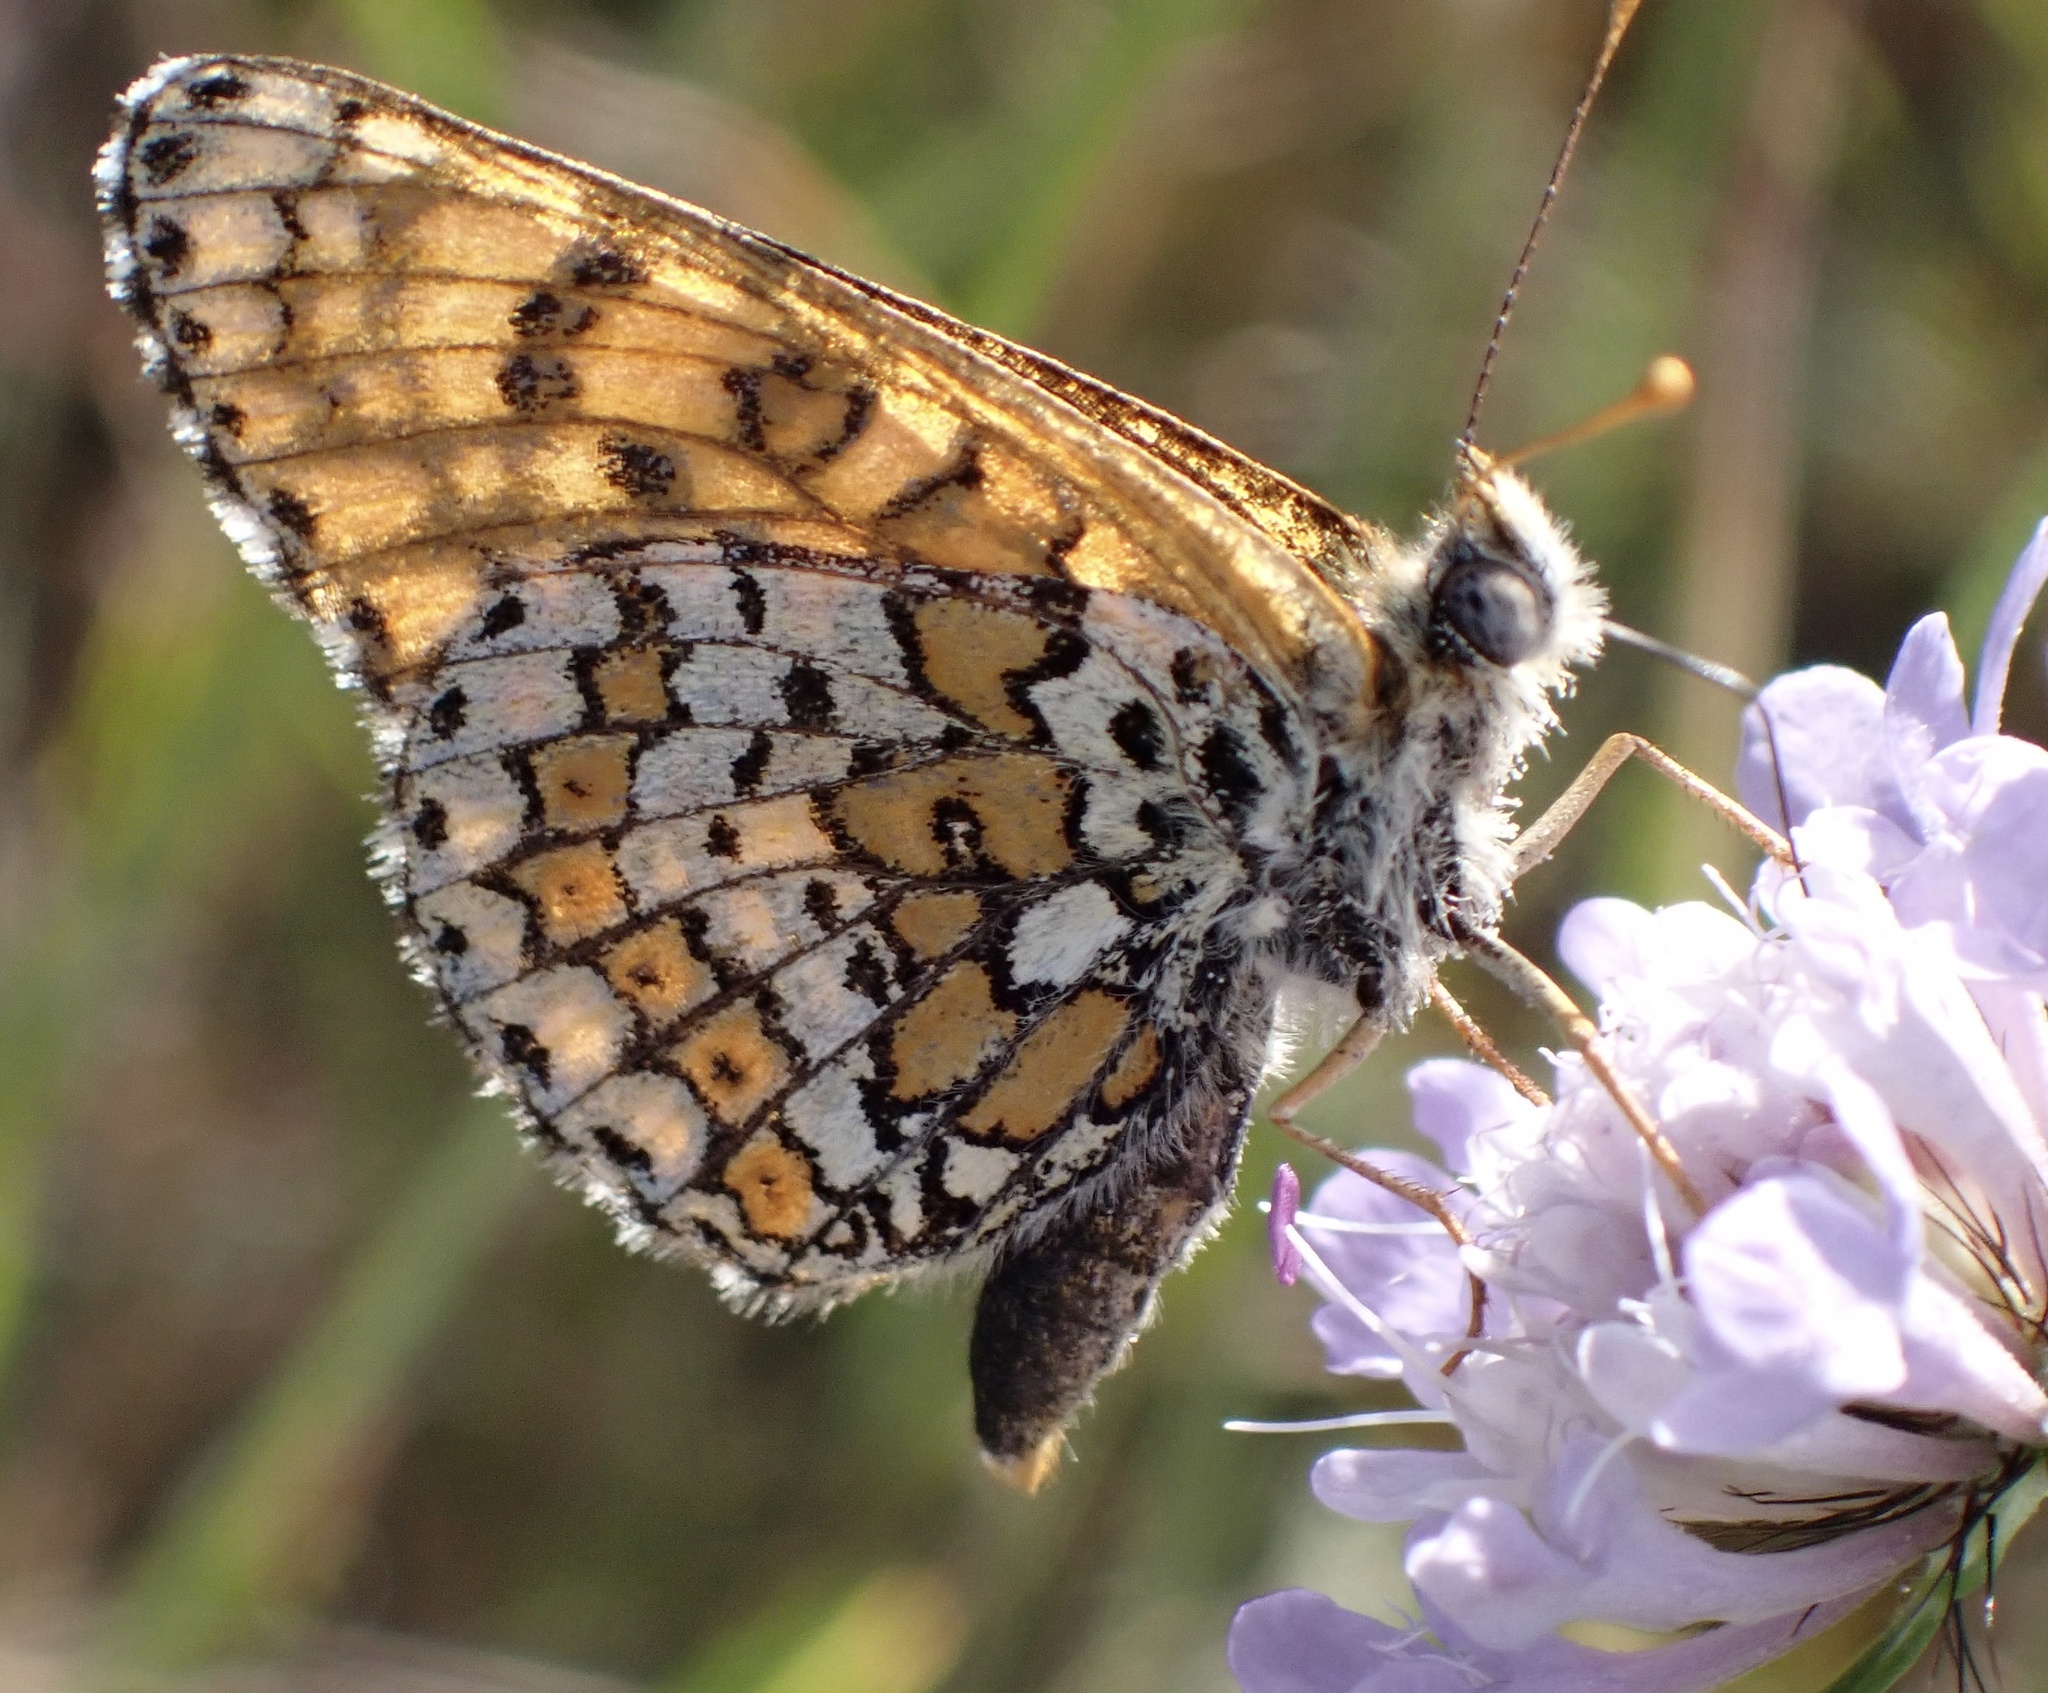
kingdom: Animalia
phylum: Arthropoda
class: Insecta
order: Lepidoptera
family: Nymphalidae
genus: Melitaea
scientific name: Melitaea cinxia
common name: Glanville fritillary
